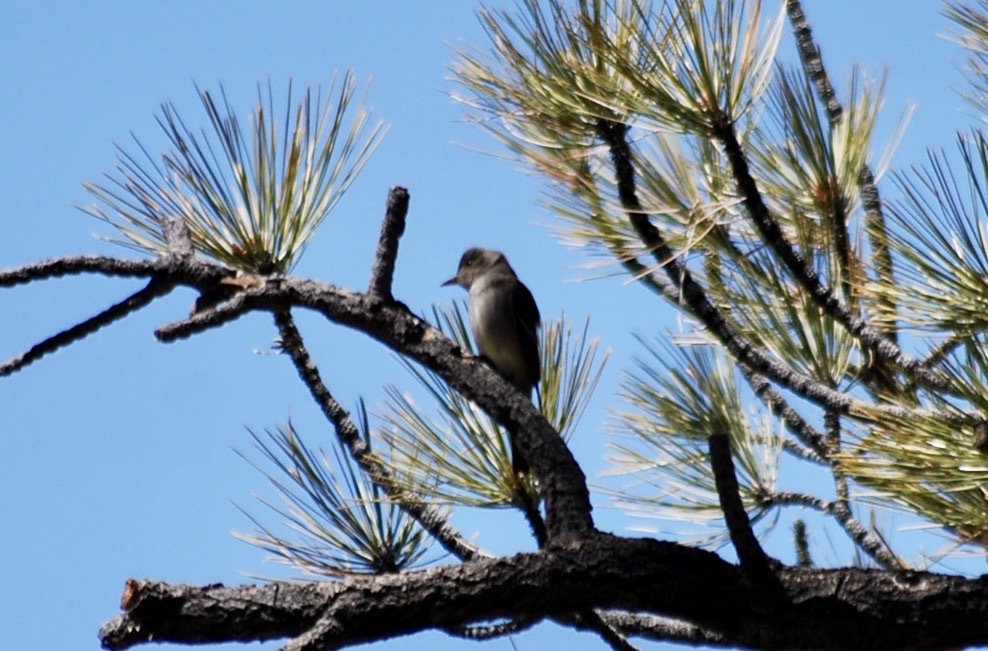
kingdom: Animalia
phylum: Chordata
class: Aves
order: Passeriformes
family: Tyrannidae
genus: Contopus
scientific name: Contopus sordidulus
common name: Western wood-pewee
